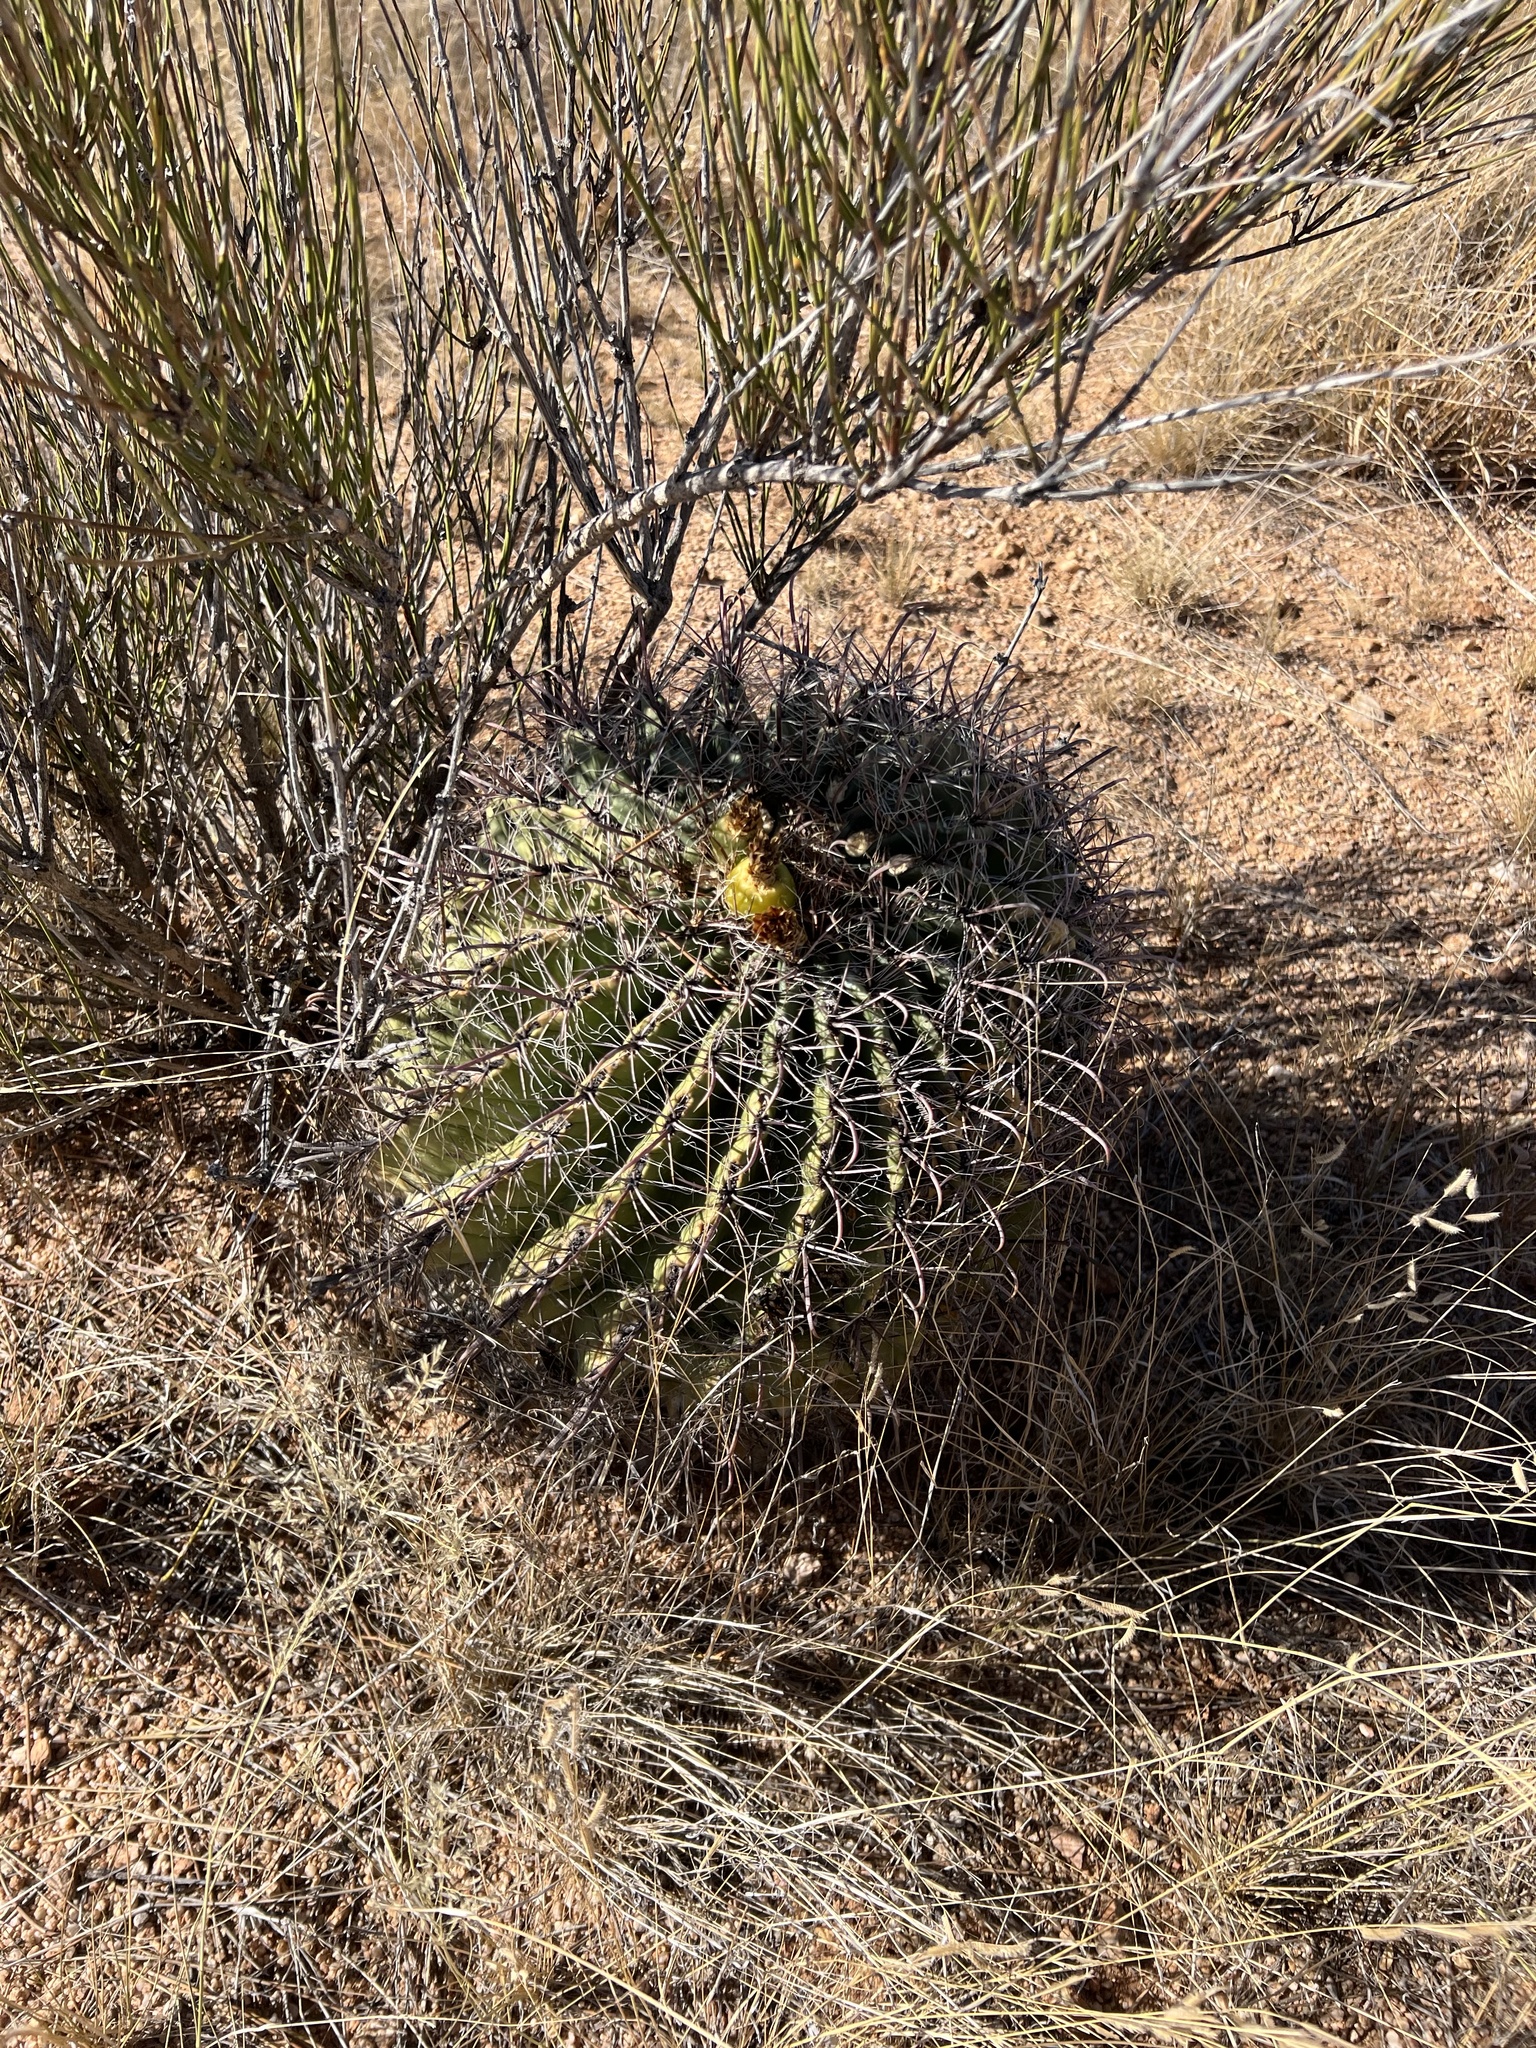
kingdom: Plantae
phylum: Tracheophyta
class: Magnoliopsida
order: Caryophyllales
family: Cactaceae
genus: Ferocactus
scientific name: Ferocactus wislizeni
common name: Candy barrel cactus
